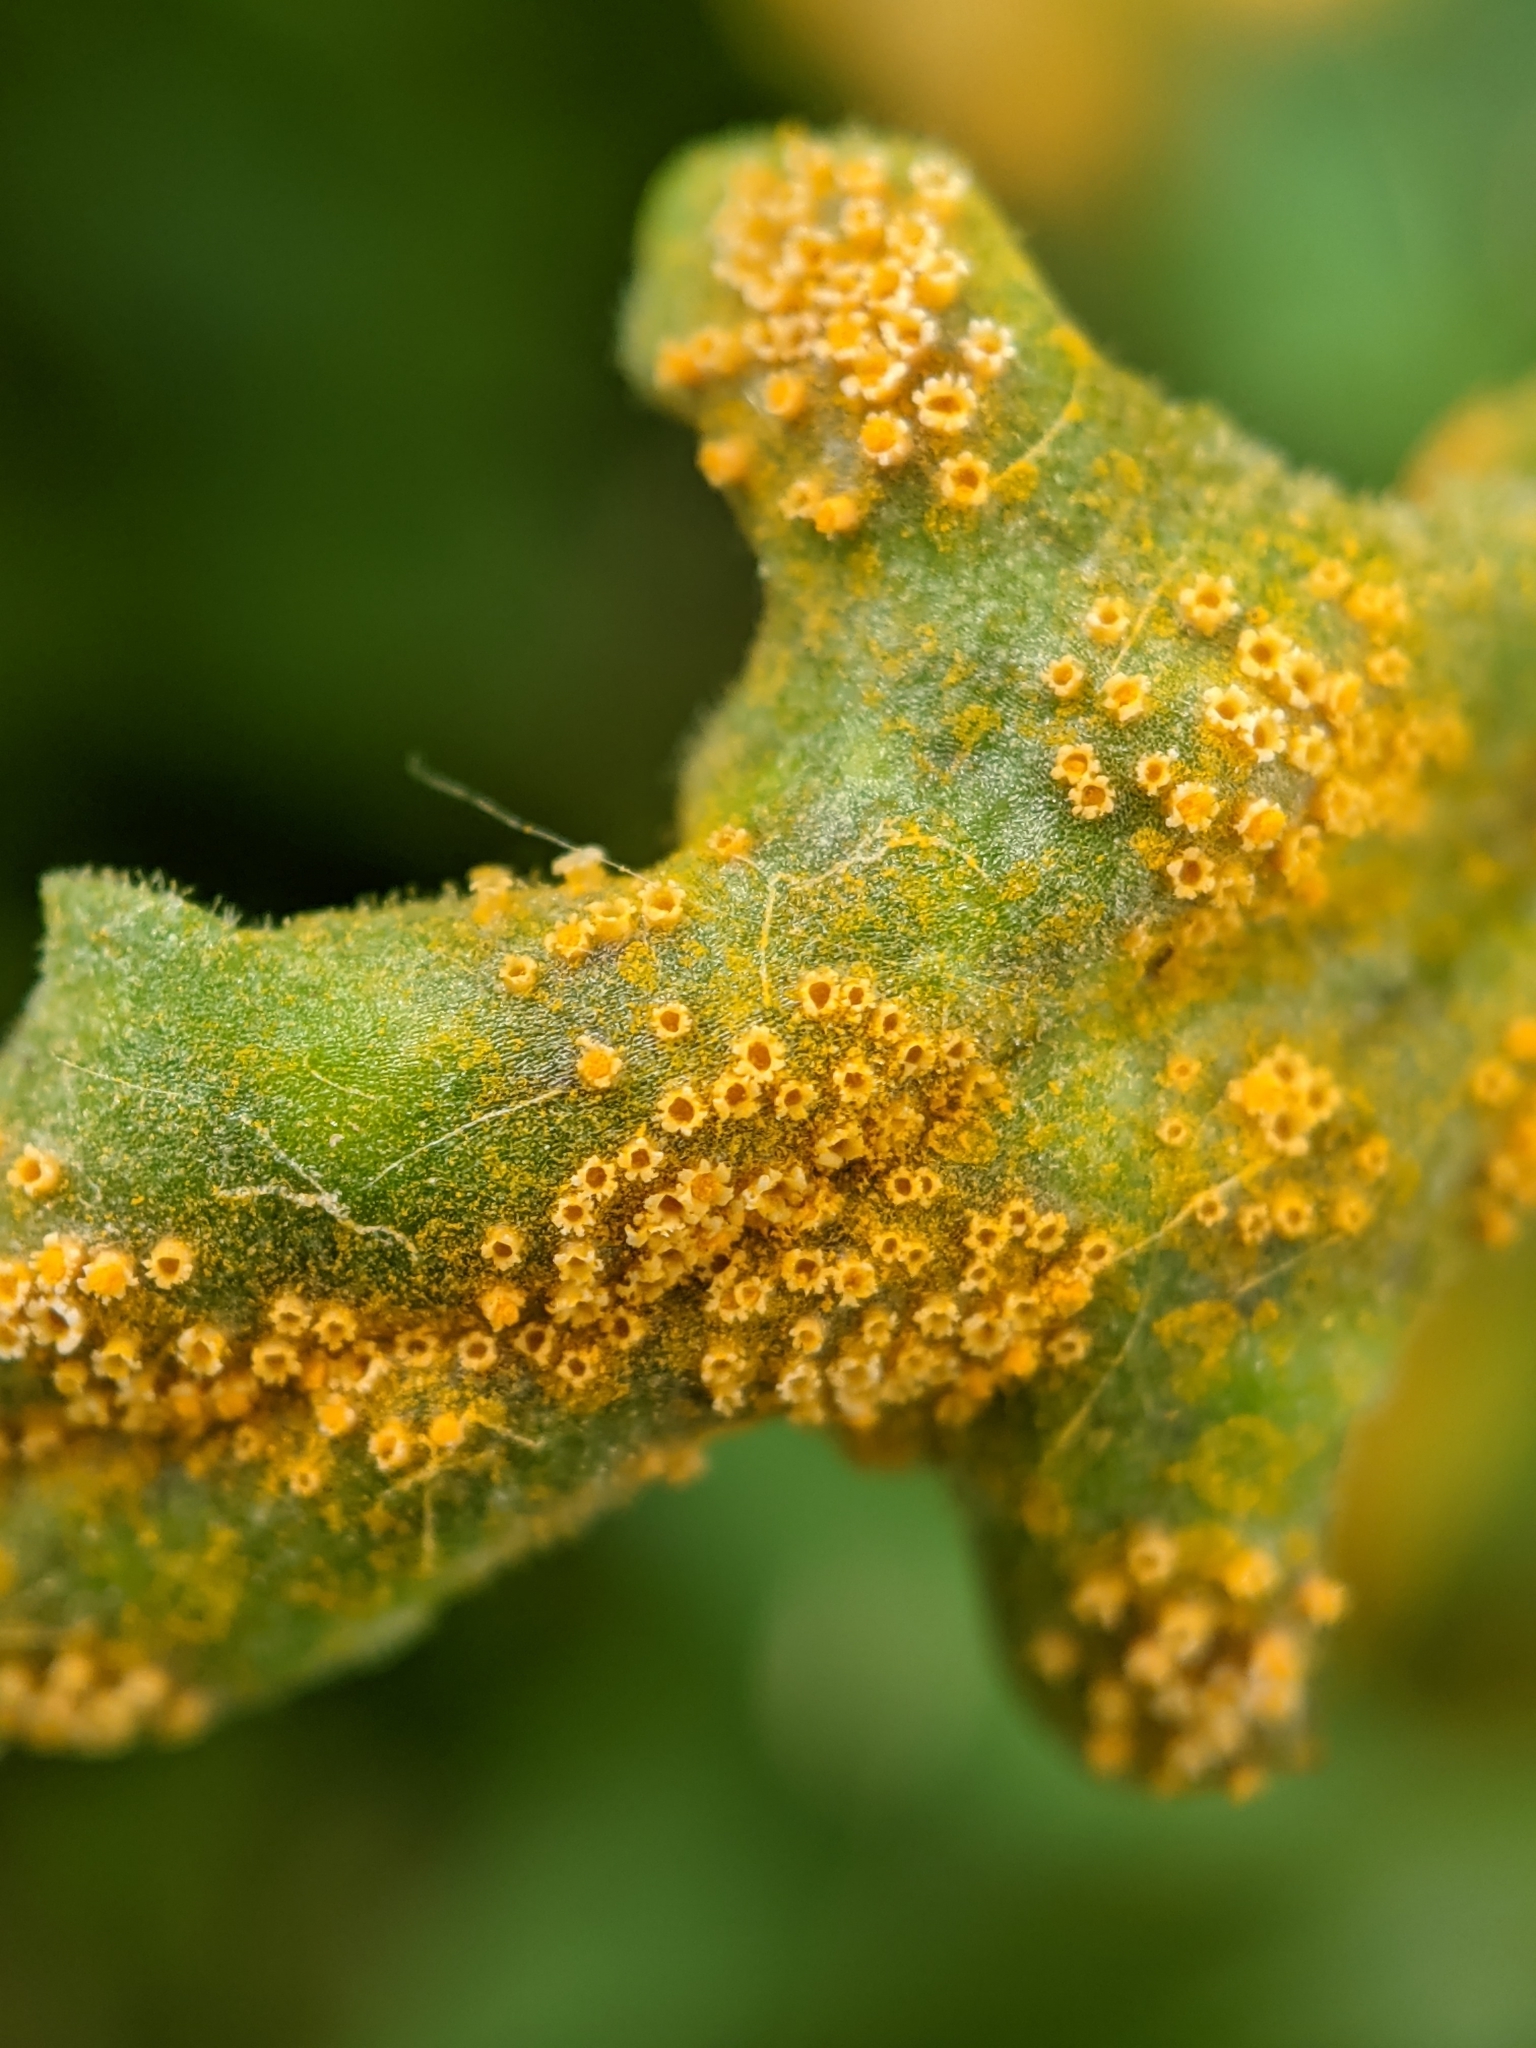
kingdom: Fungi
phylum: Basidiomycota
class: Pucciniomycetes
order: Pucciniales
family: Pucciniaceae
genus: Puccinia
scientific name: Puccinia lagenophorae
